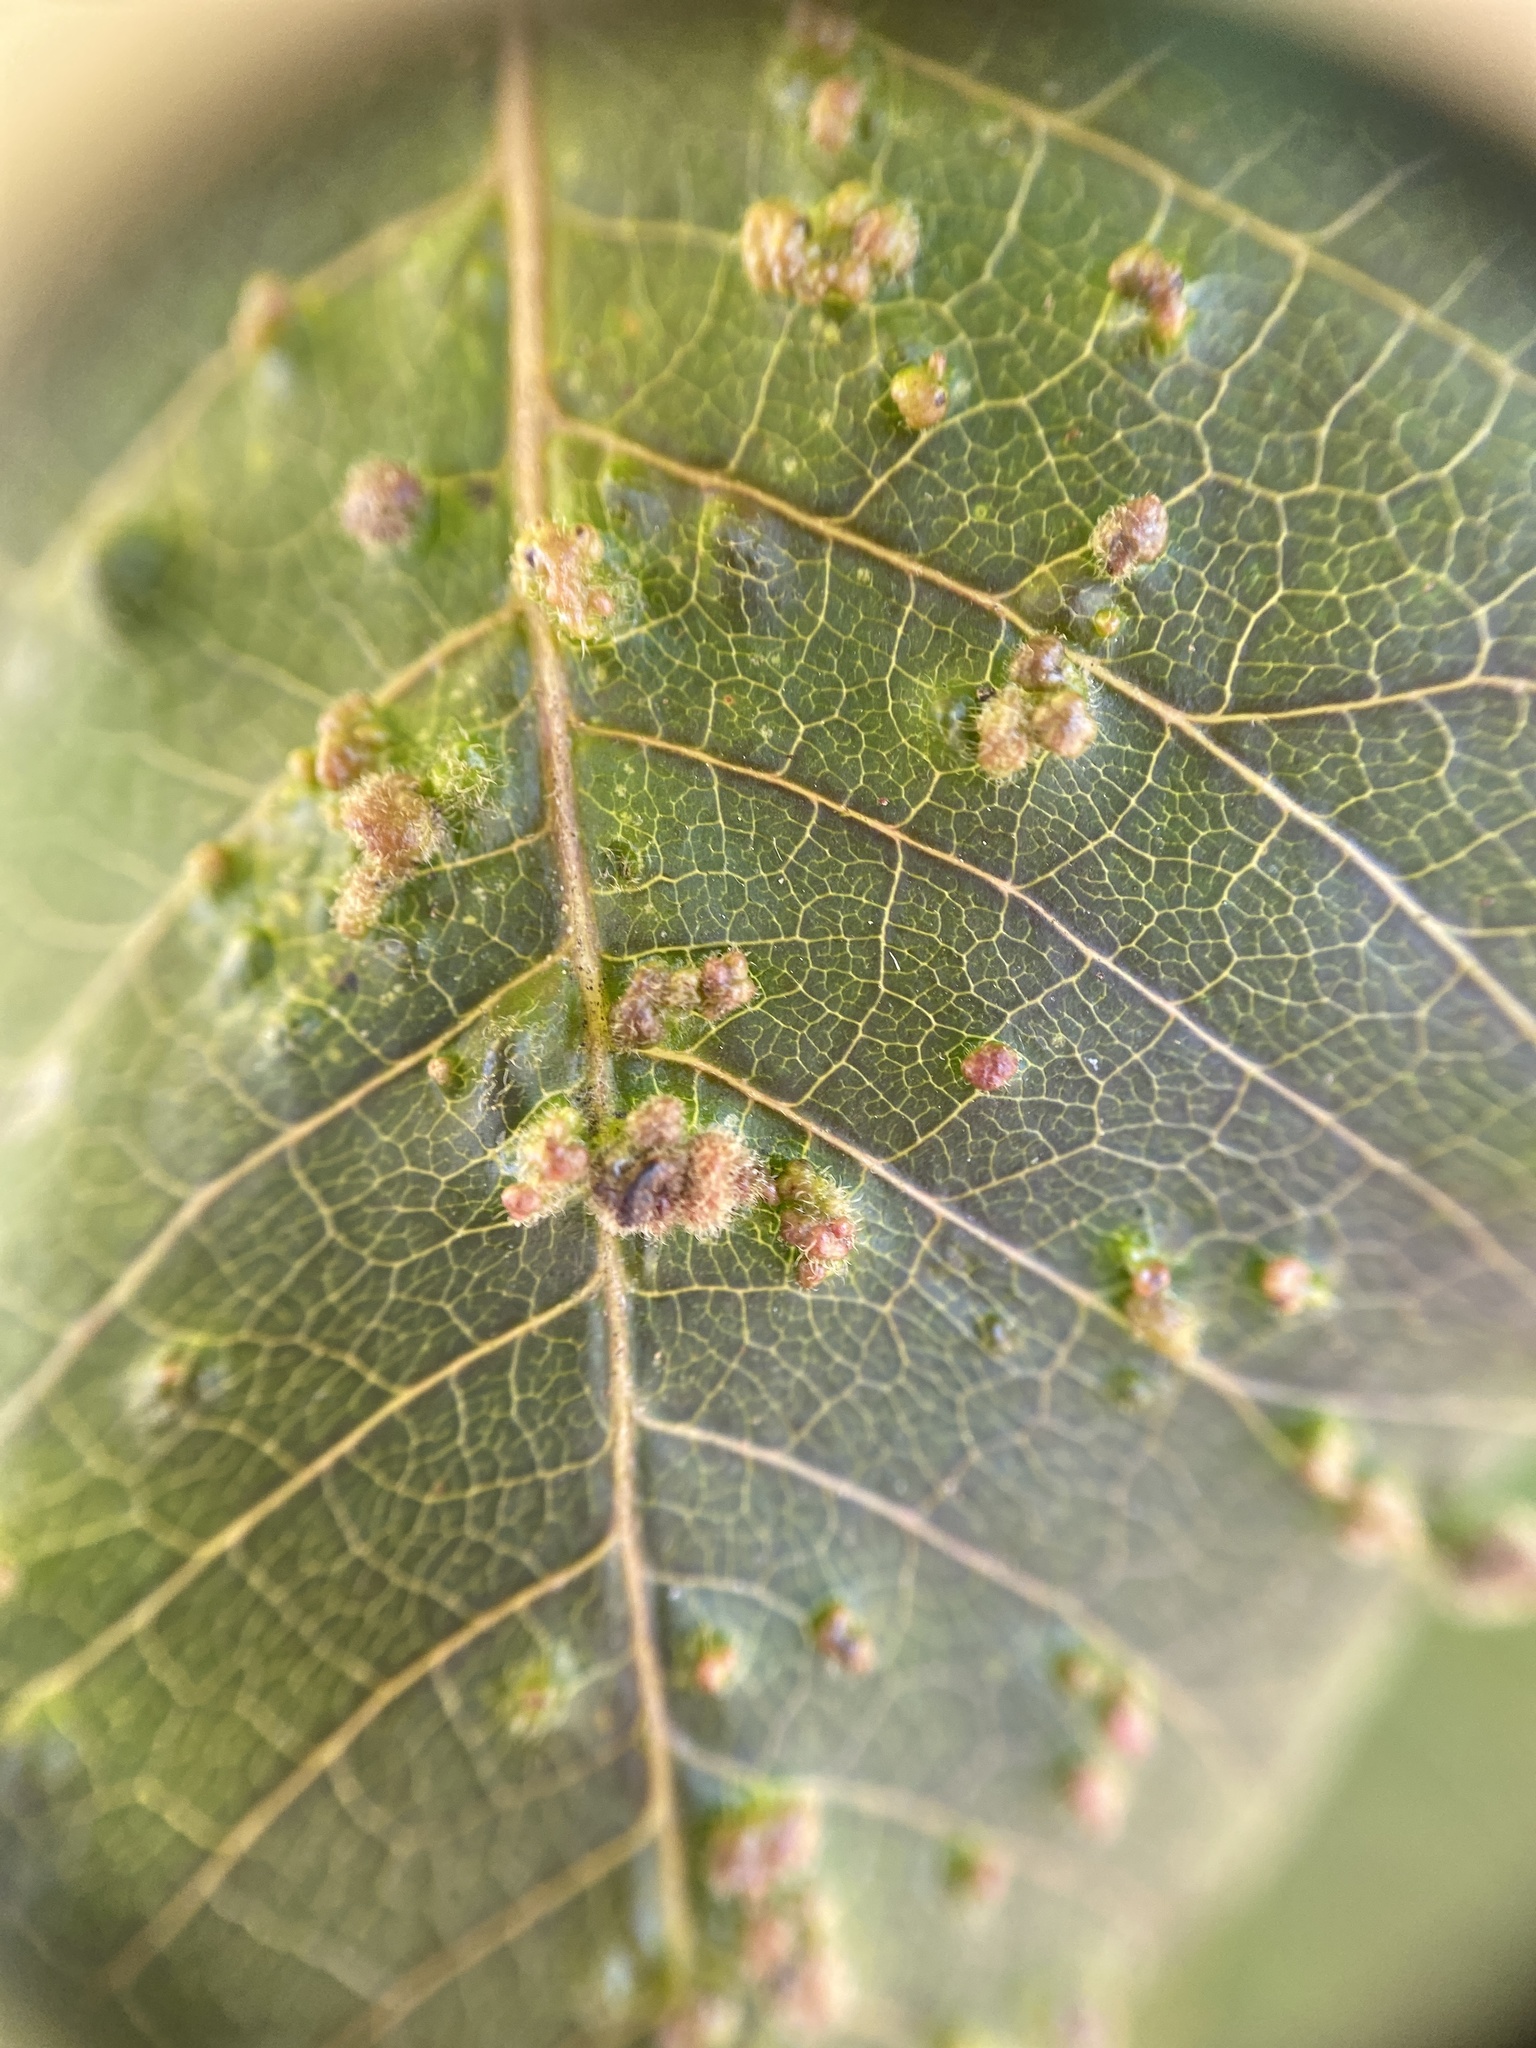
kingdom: Animalia
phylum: Arthropoda
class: Arachnida
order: Trombidiformes
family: Eriophyidae
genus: Aculops
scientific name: Aculops
